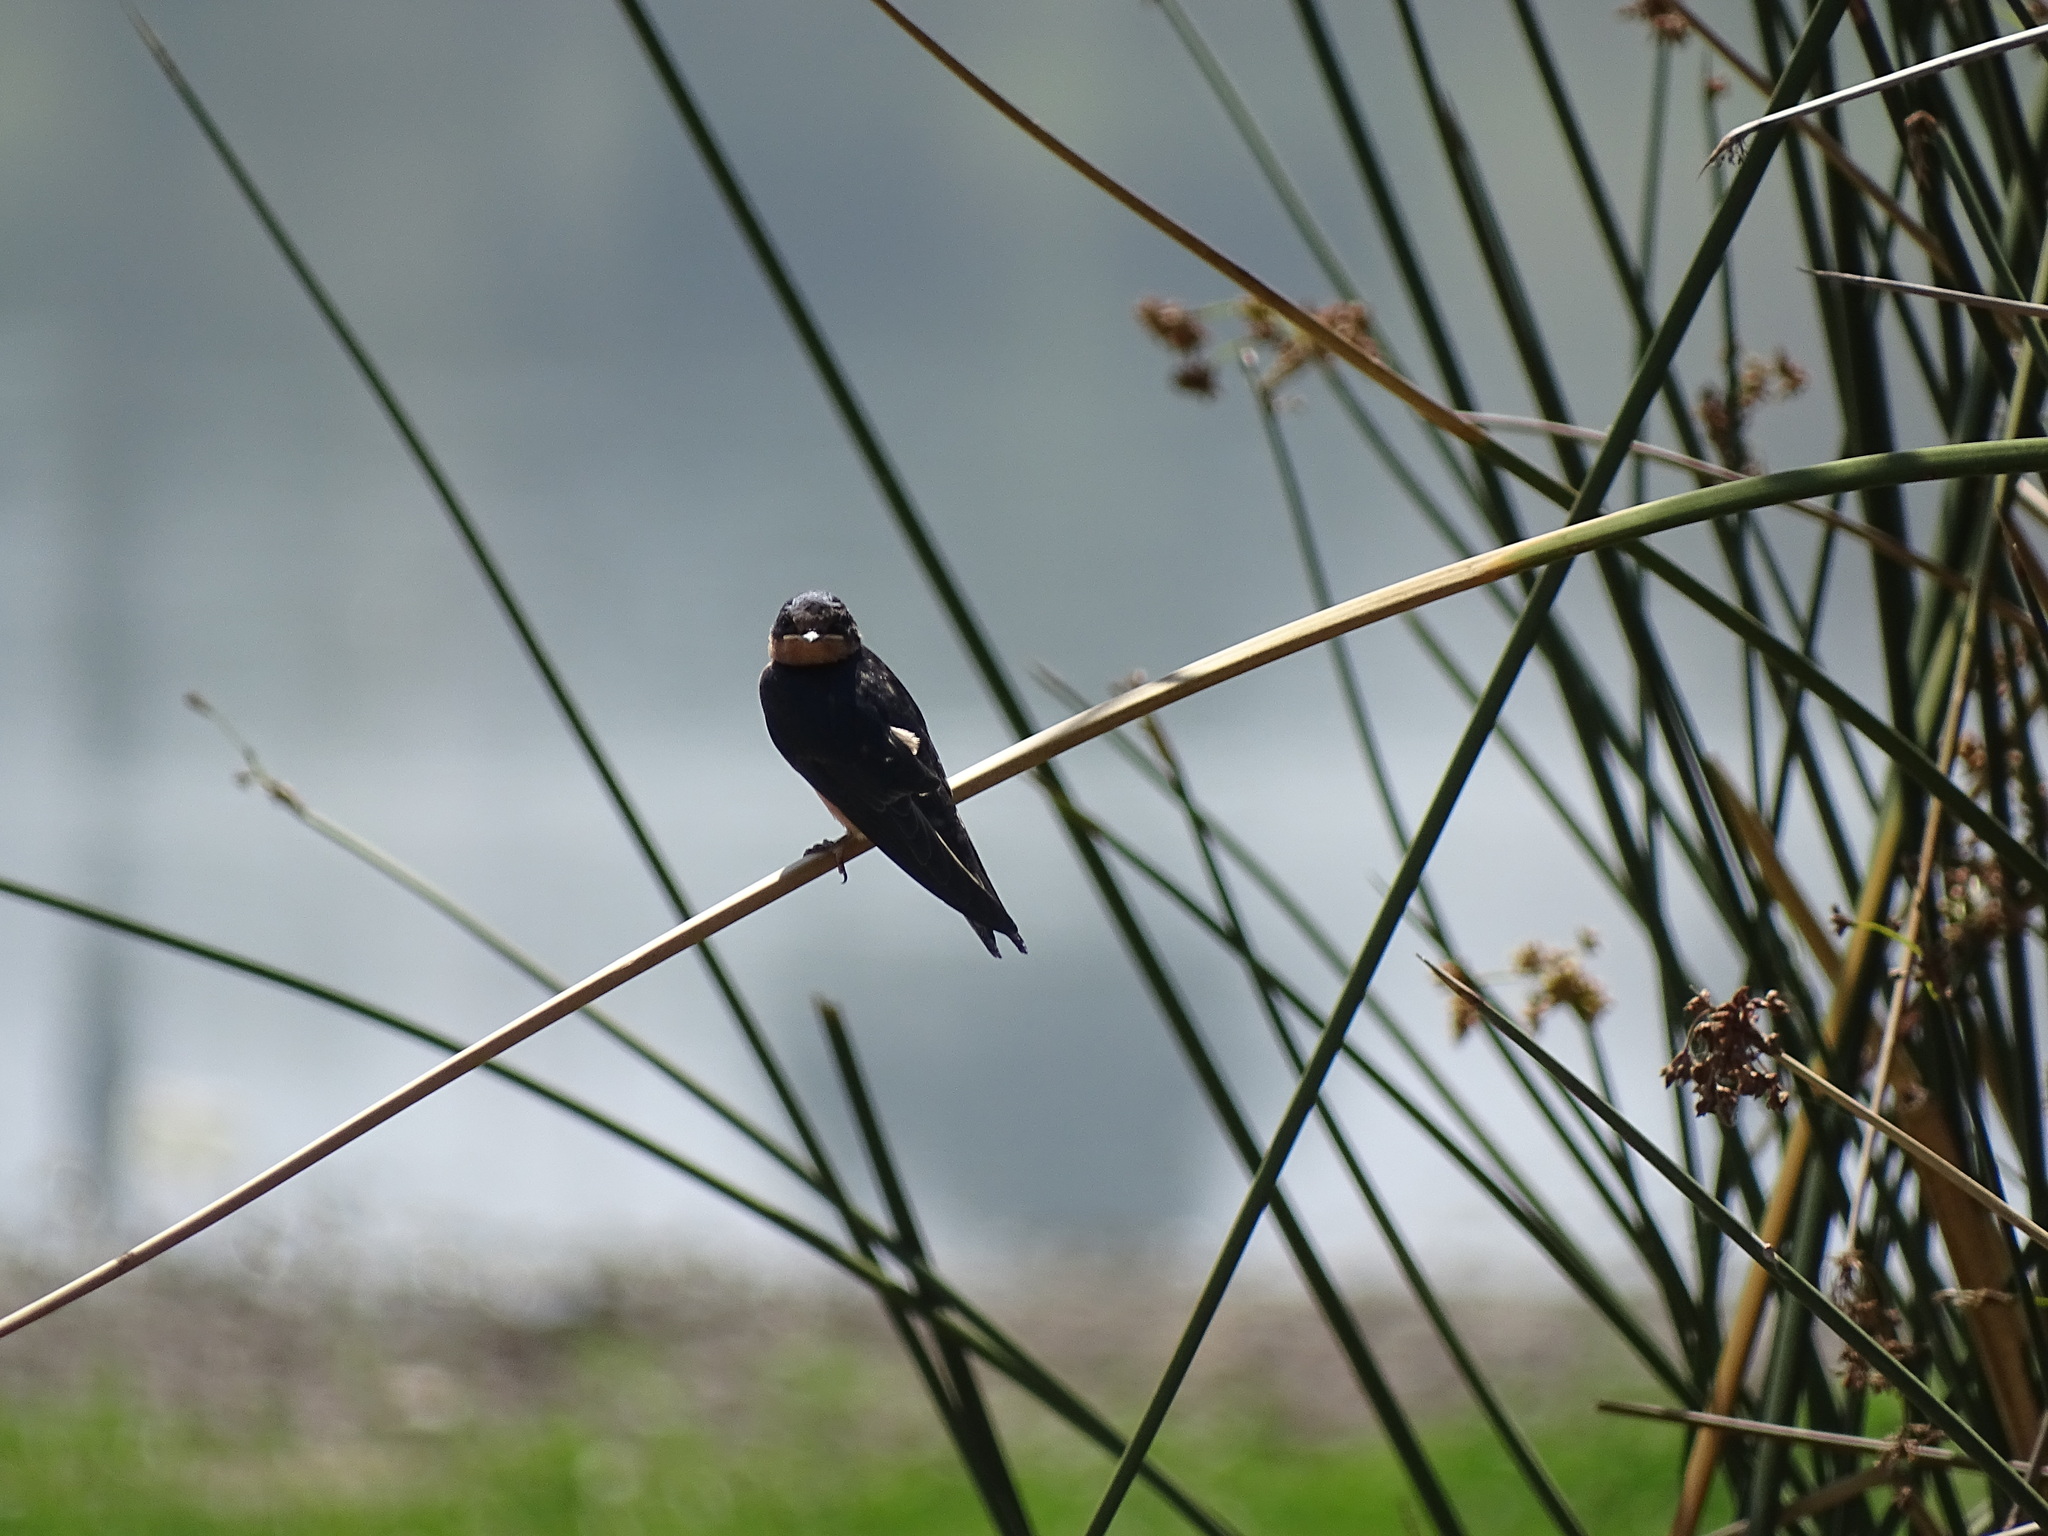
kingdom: Animalia
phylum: Chordata
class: Aves
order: Passeriformes
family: Hirundinidae
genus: Hirundo
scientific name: Hirundo rustica
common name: Barn swallow
